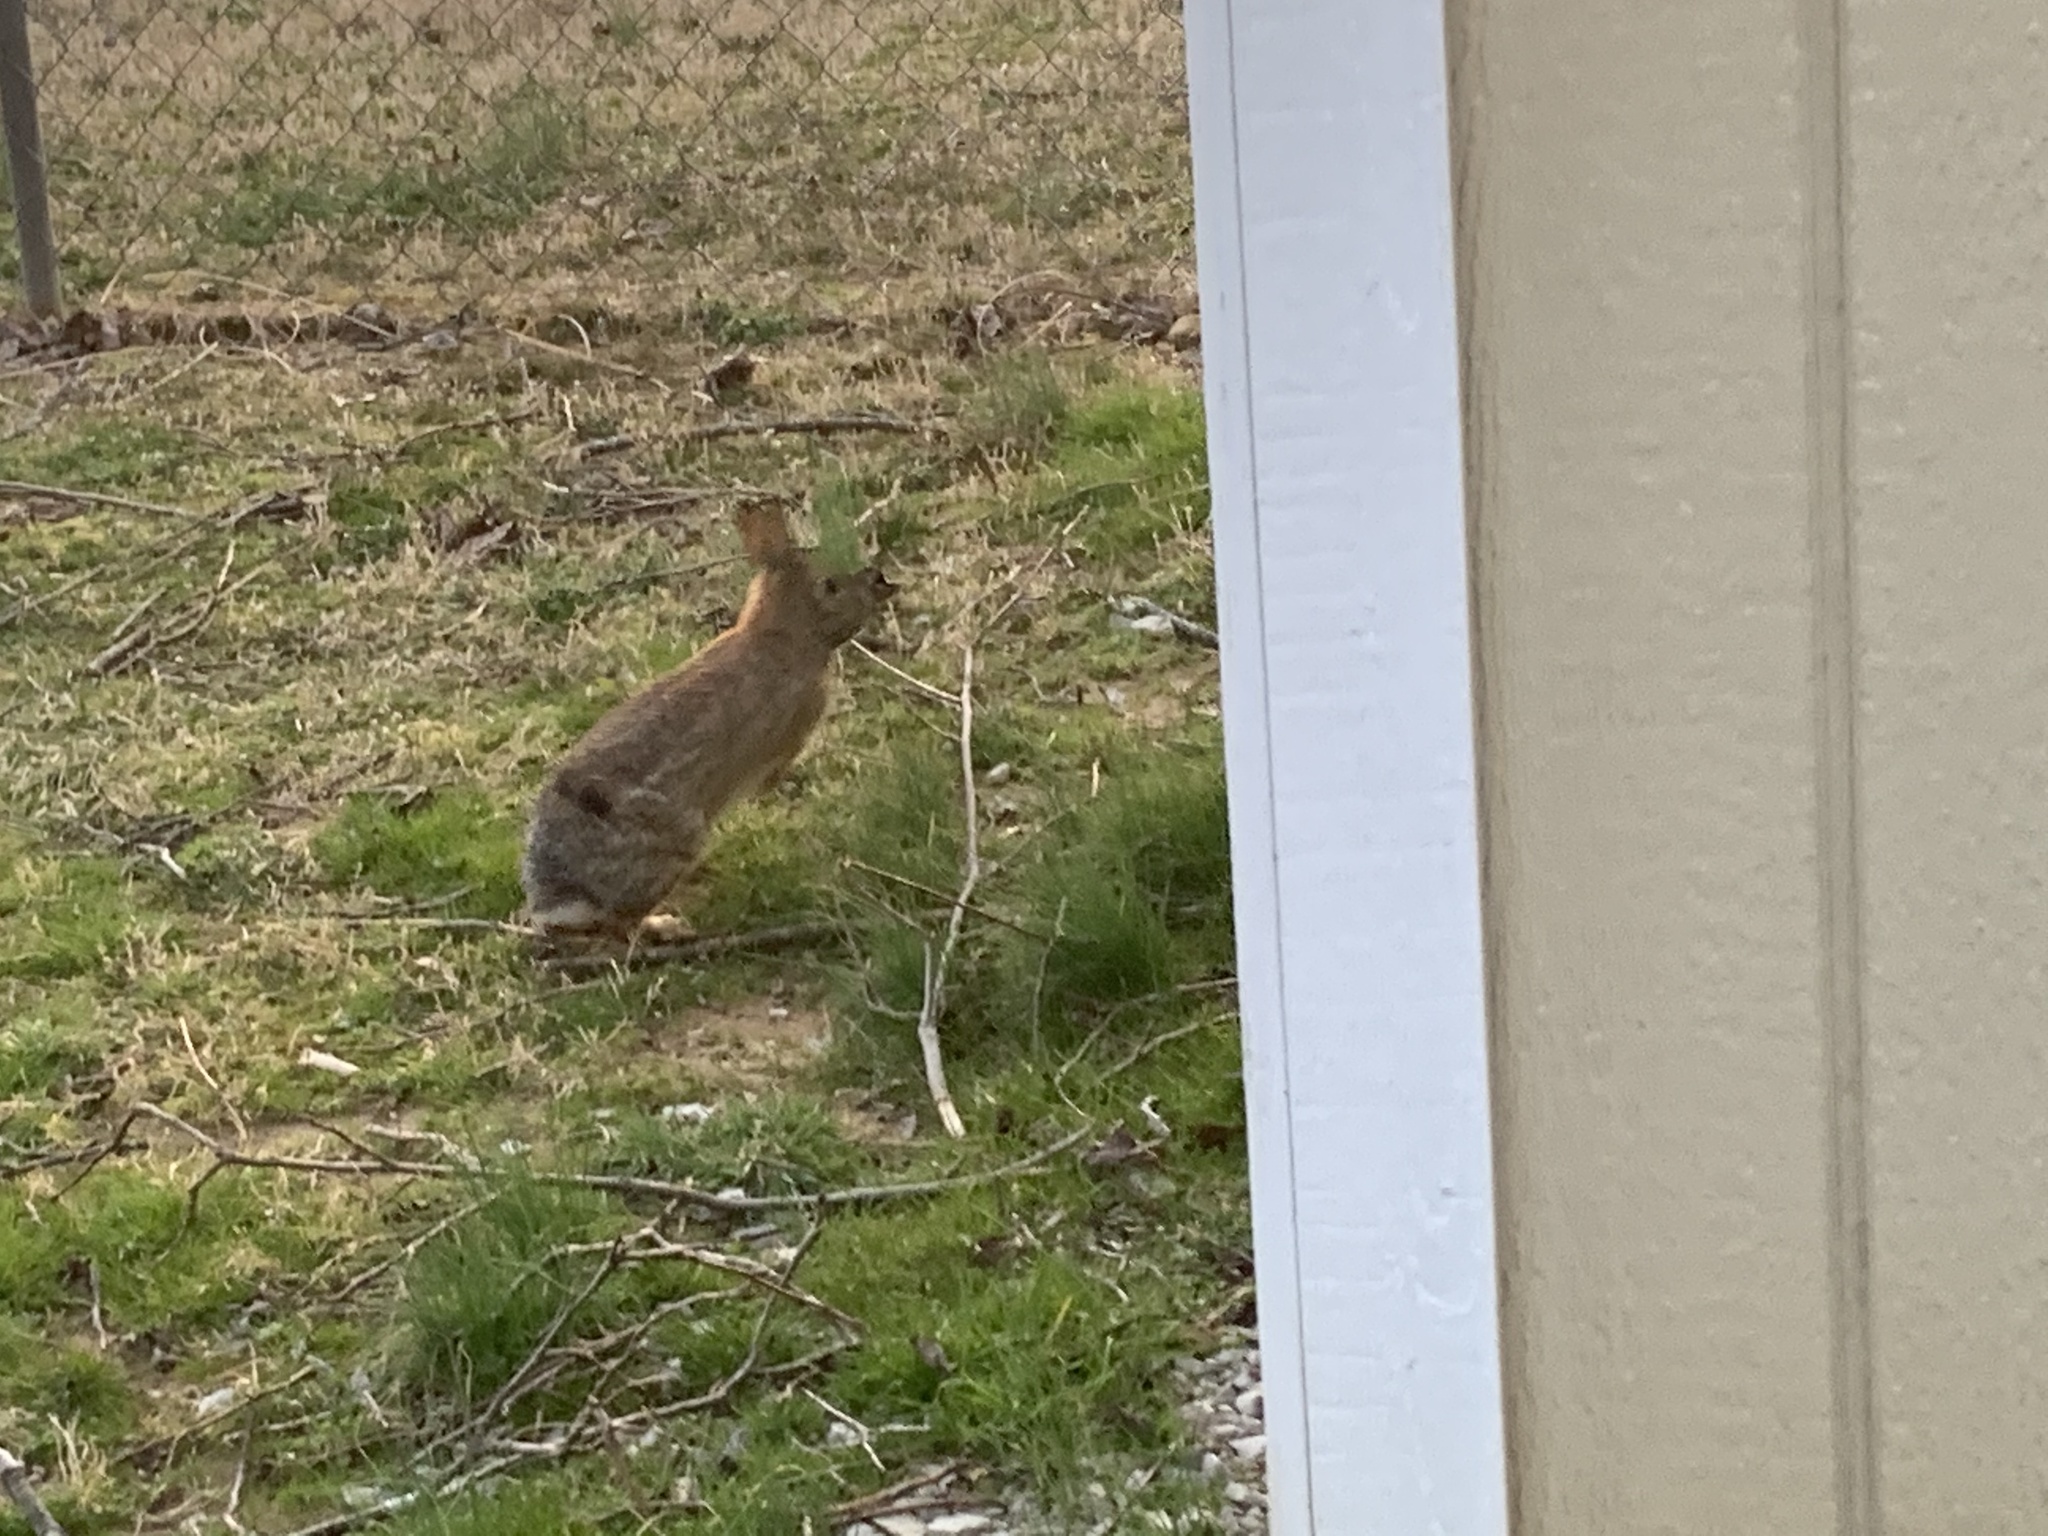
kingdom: Animalia
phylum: Chordata
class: Mammalia
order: Lagomorpha
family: Leporidae
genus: Sylvilagus
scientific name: Sylvilagus floridanus
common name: Eastern cottontail
